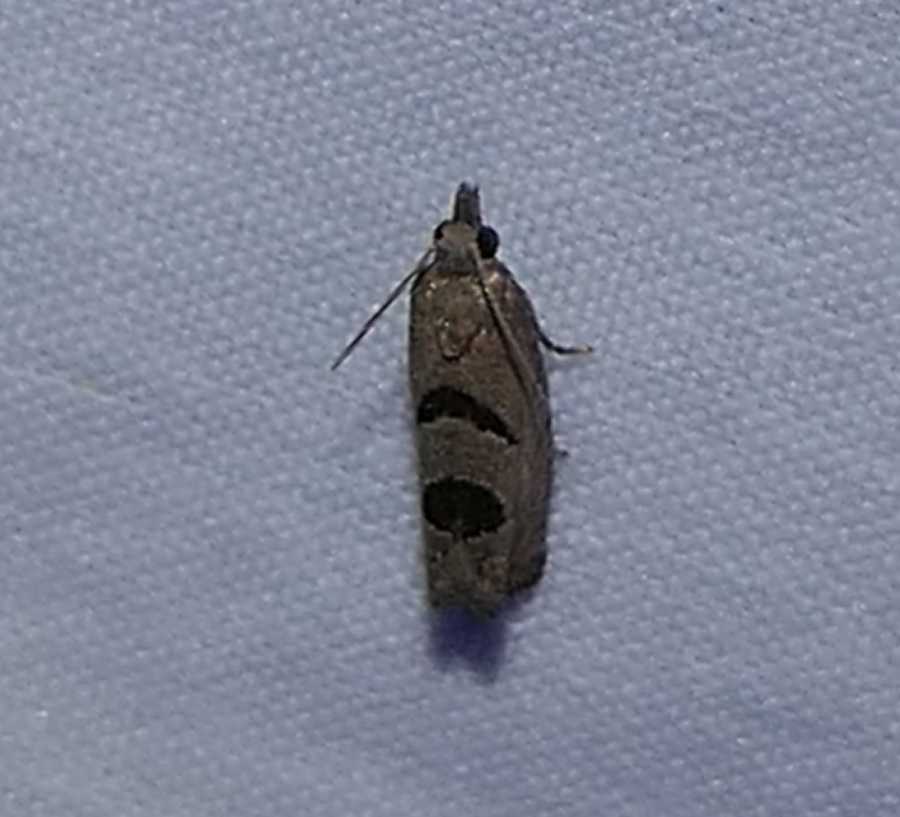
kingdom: Animalia
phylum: Arthropoda
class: Insecta
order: Lepidoptera
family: Tortricidae
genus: Eucosma
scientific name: Eucosma tomonana
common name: Aster-head eucosma moth
